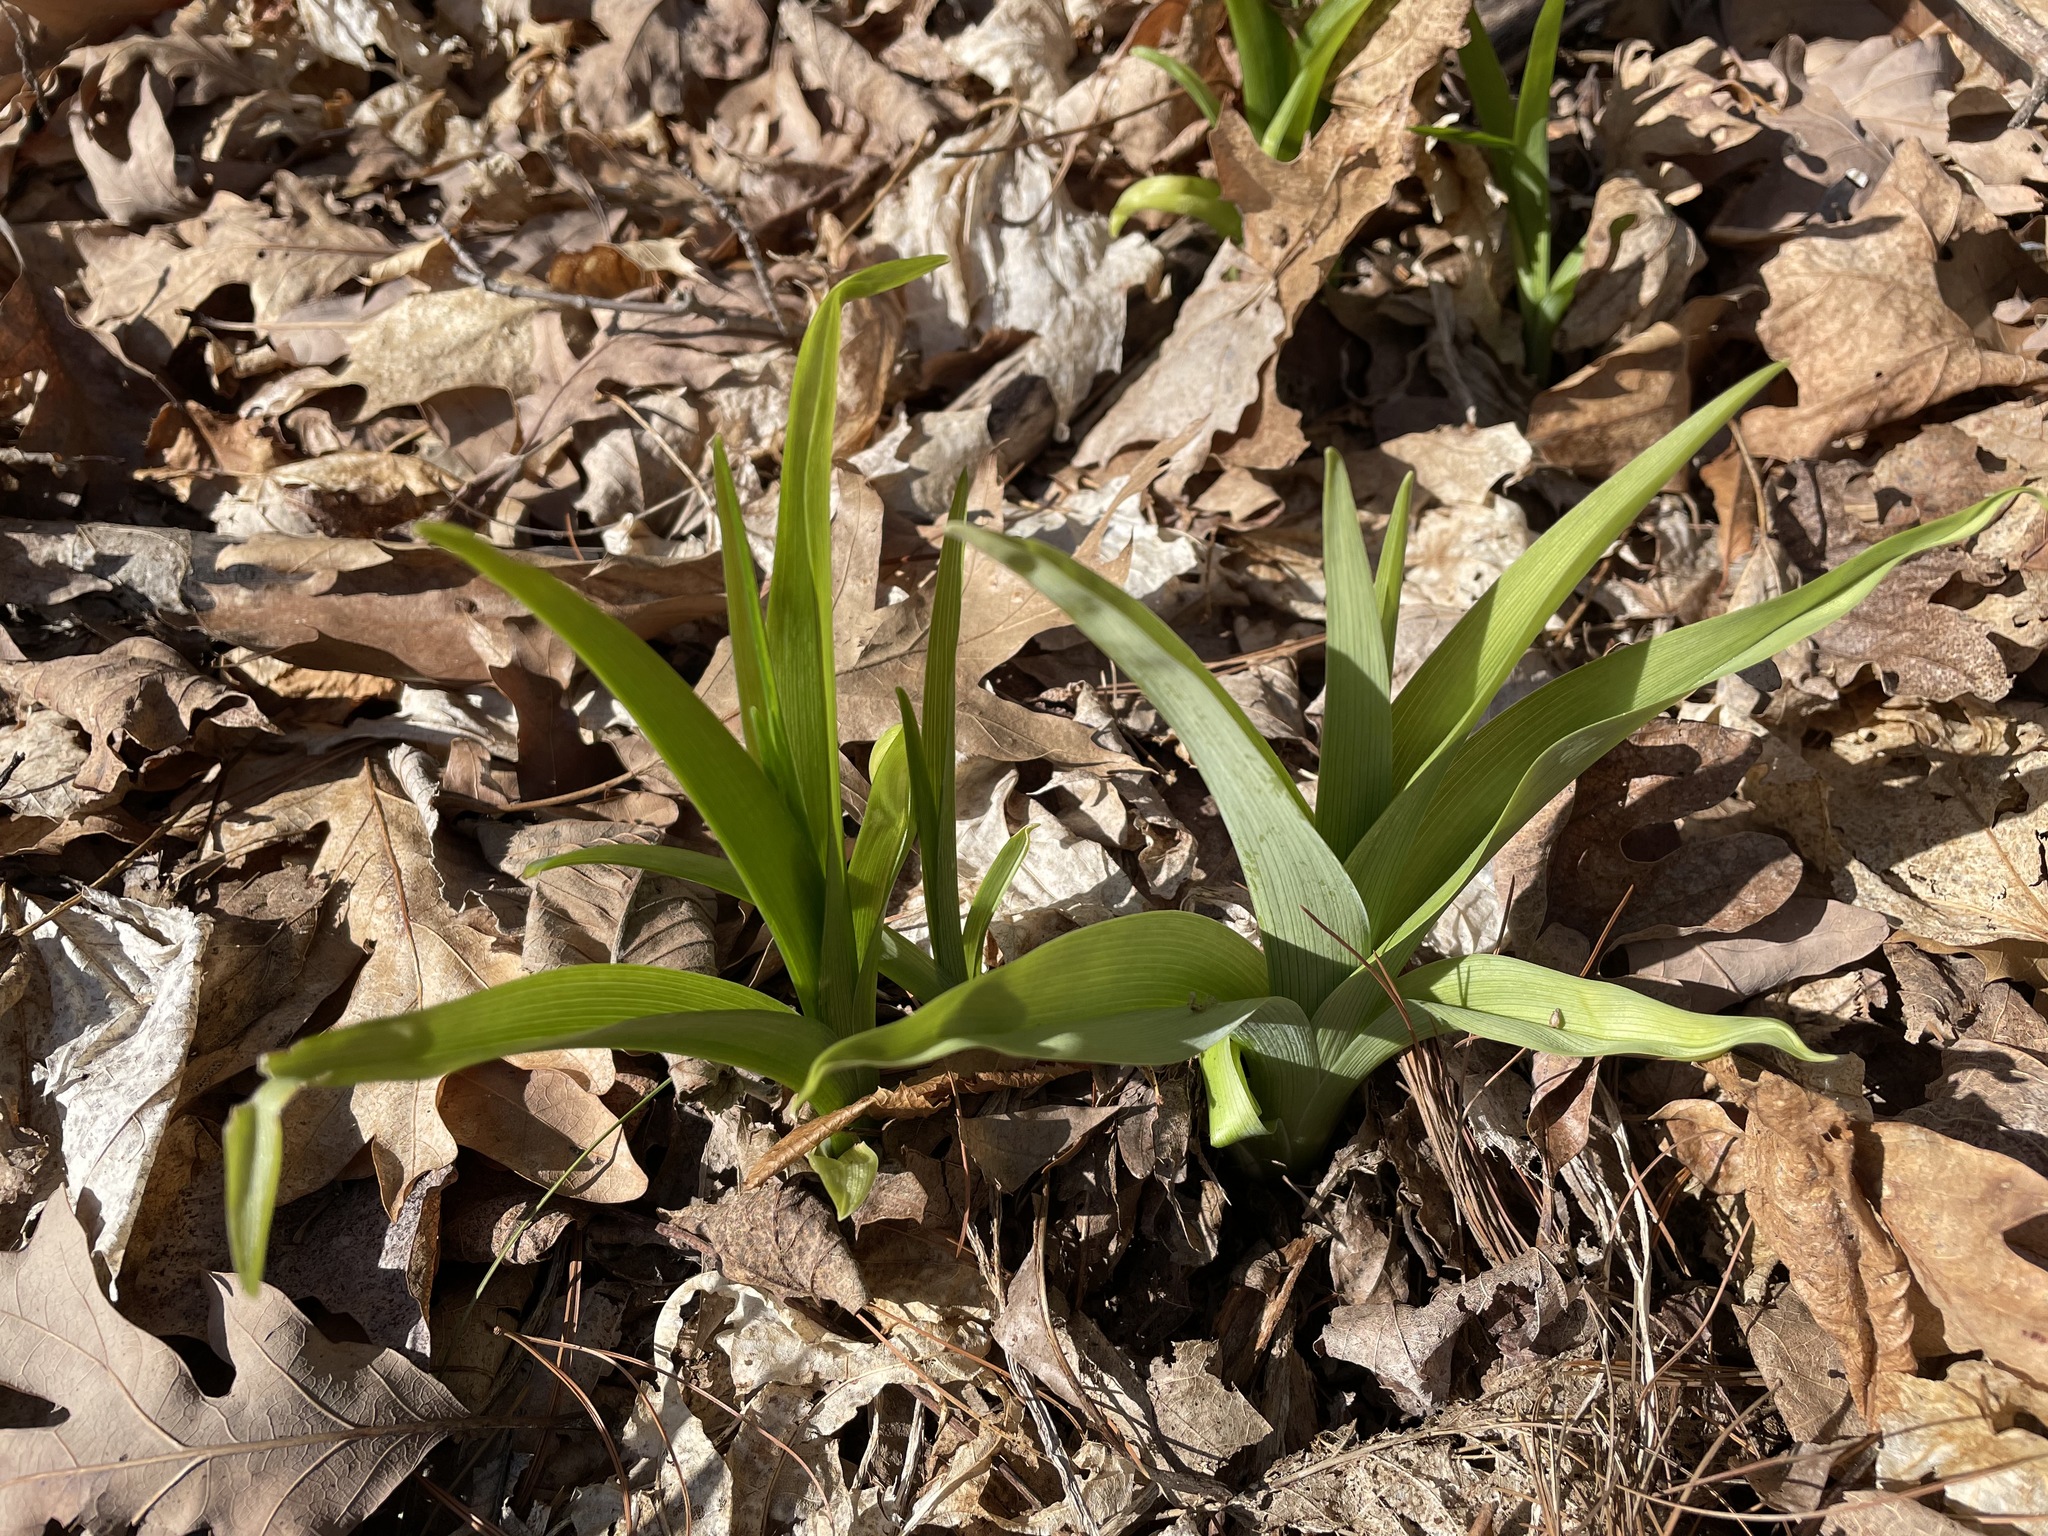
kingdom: Plantae
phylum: Tracheophyta
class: Liliopsida
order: Asparagales
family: Asphodelaceae
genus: Hemerocallis
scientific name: Hemerocallis
